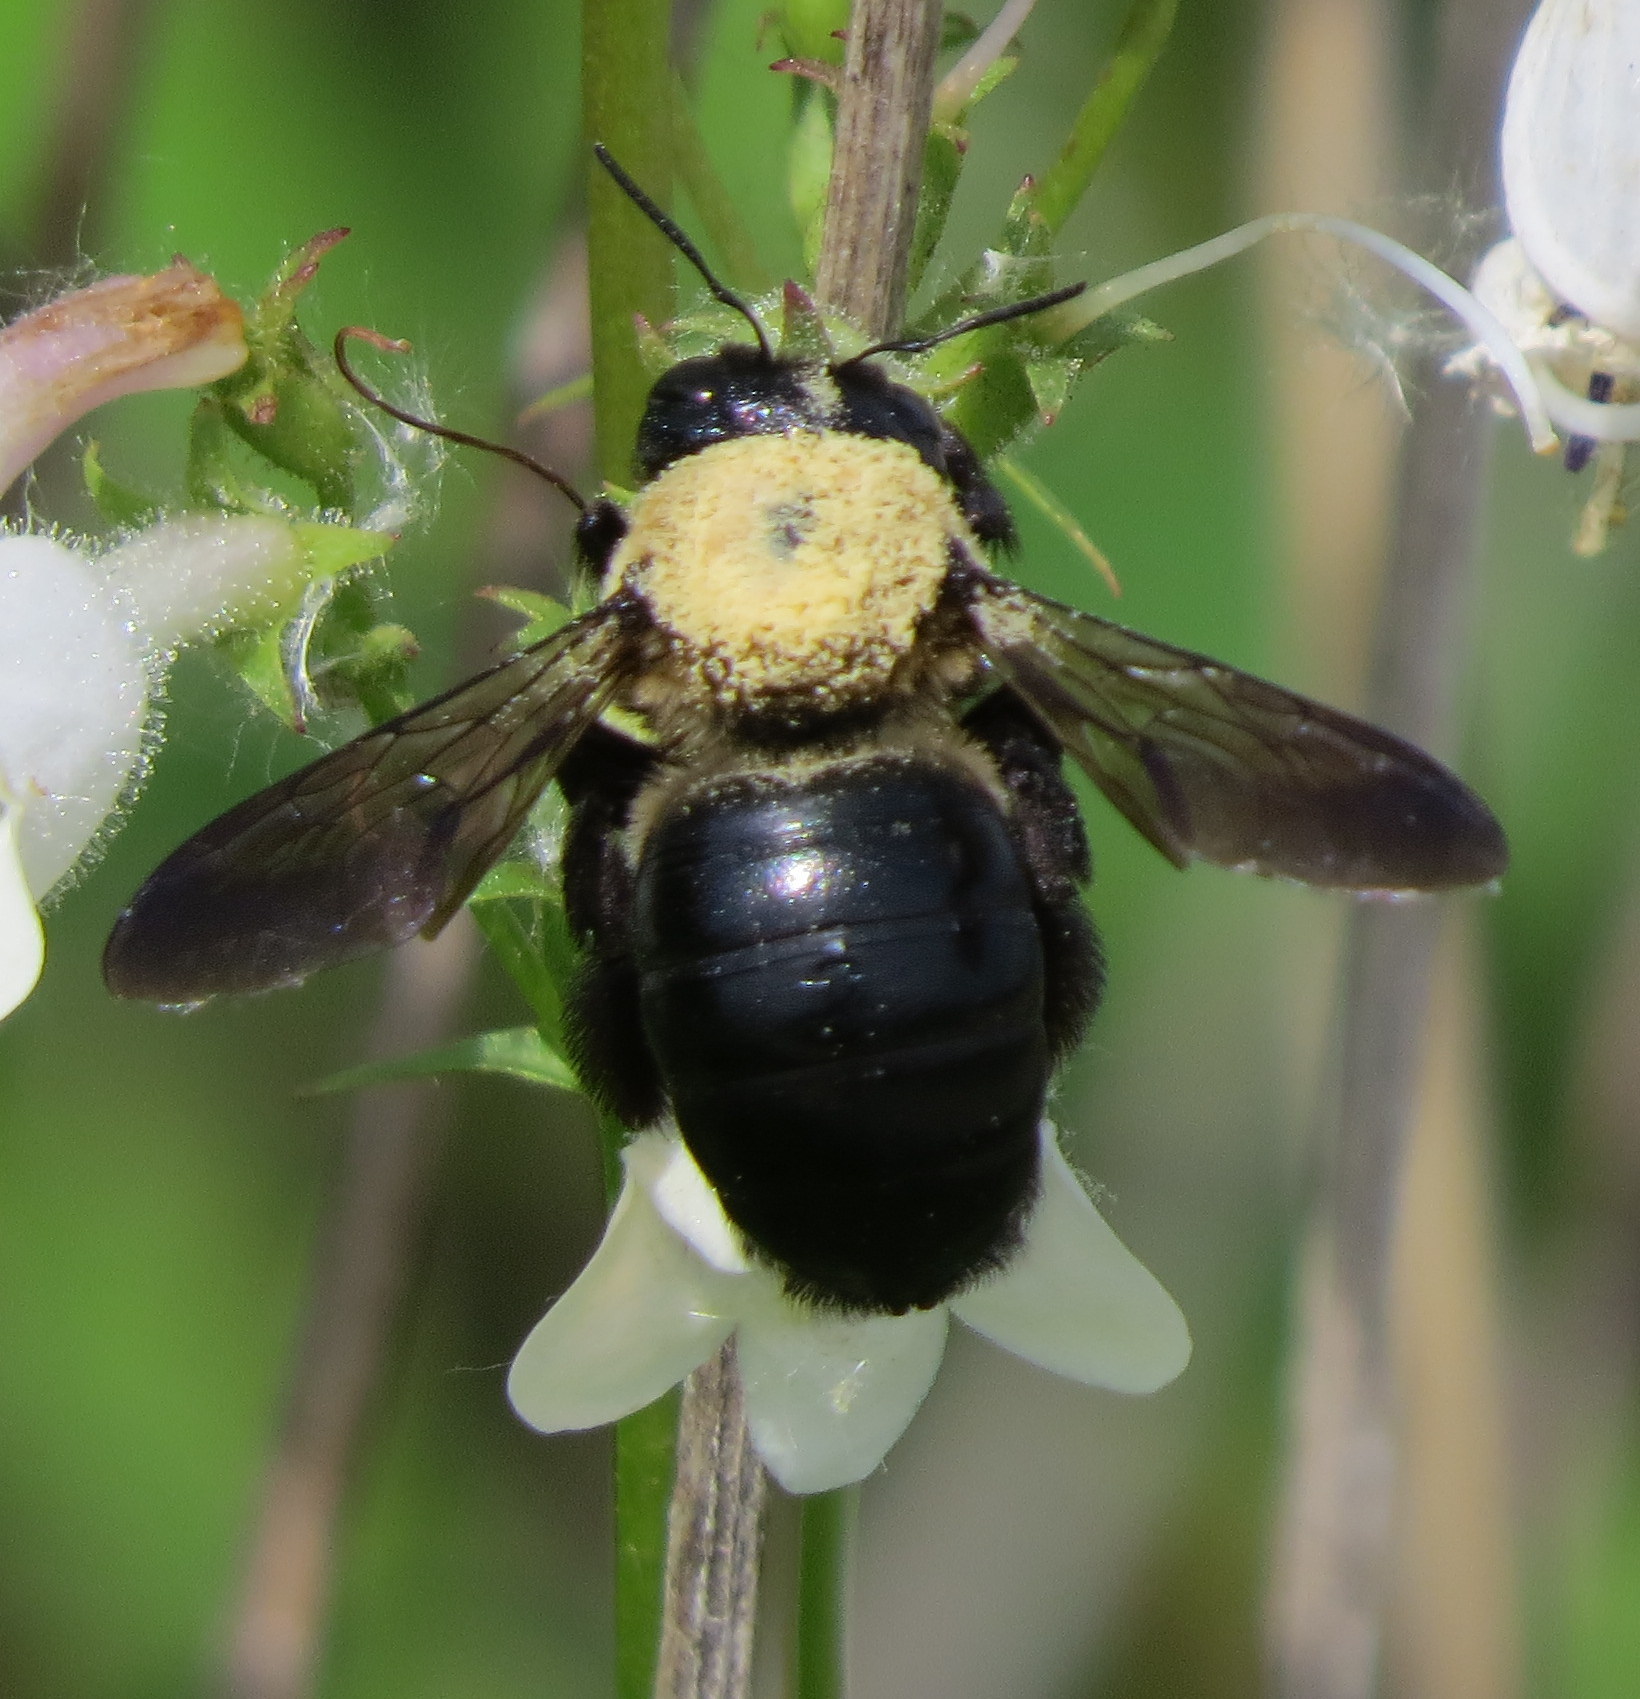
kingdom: Animalia
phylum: Arthropoda
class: Insecta
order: Hymenoptera
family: Apidae
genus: Xylocopa
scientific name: Xylocopa virginica
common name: Carpenter bee
